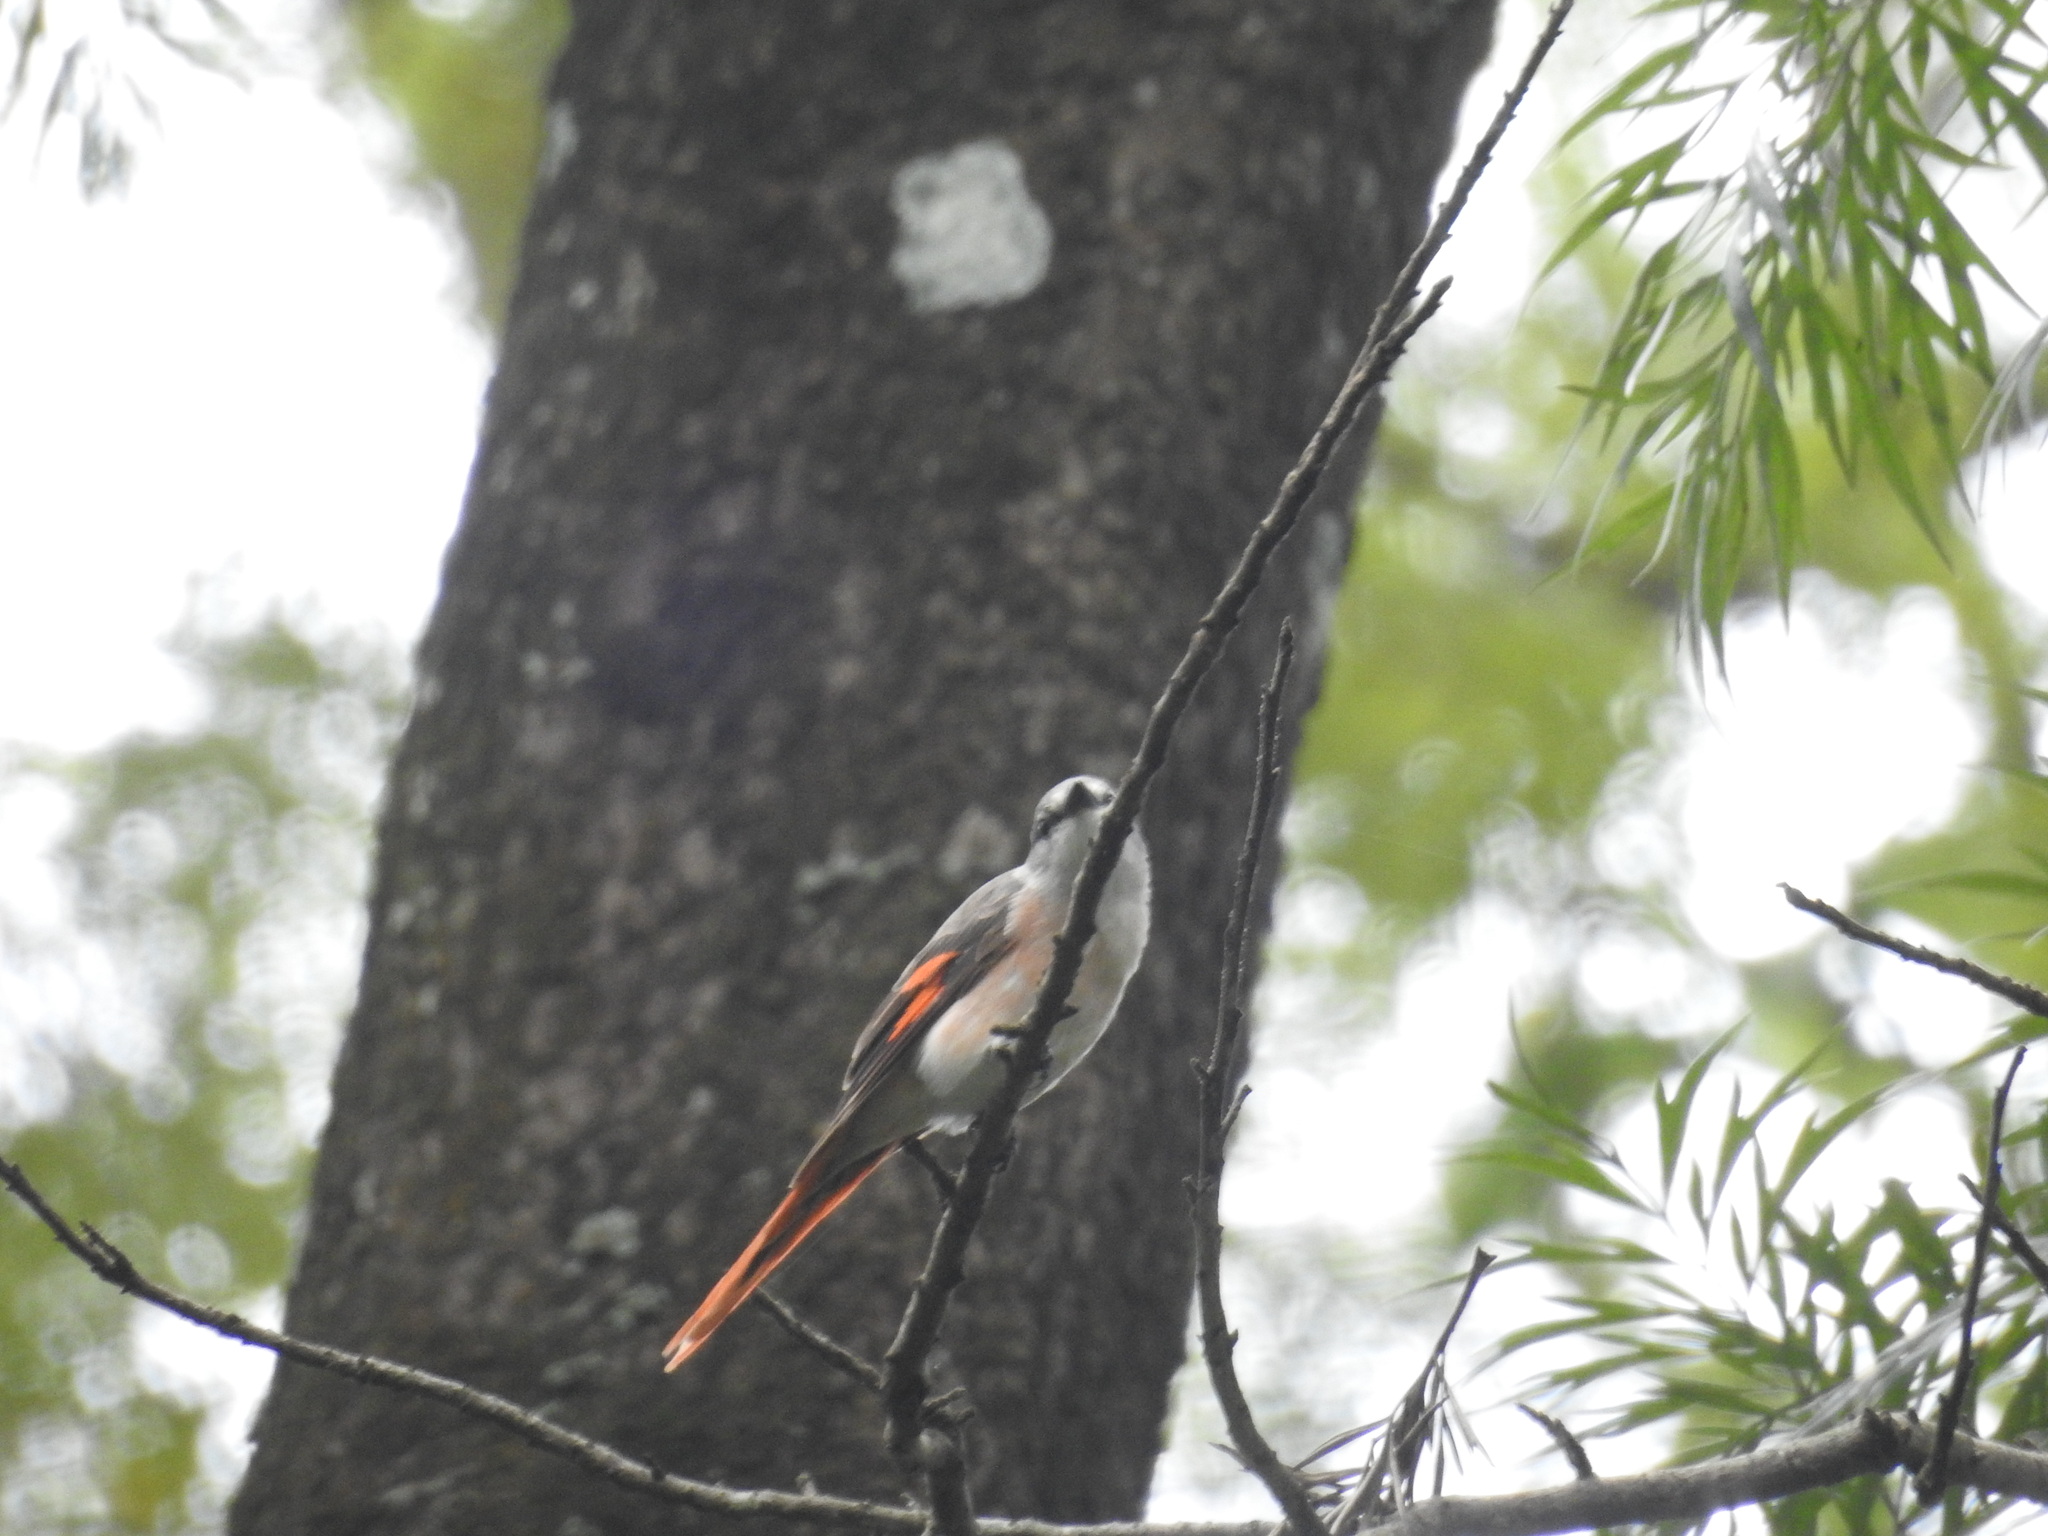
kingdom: Animalia
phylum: Chordata
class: Aves
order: Passeriformes
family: Campephagidae
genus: Pericrocotus
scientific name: Pericrocotus roseus
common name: Rosy minivet
